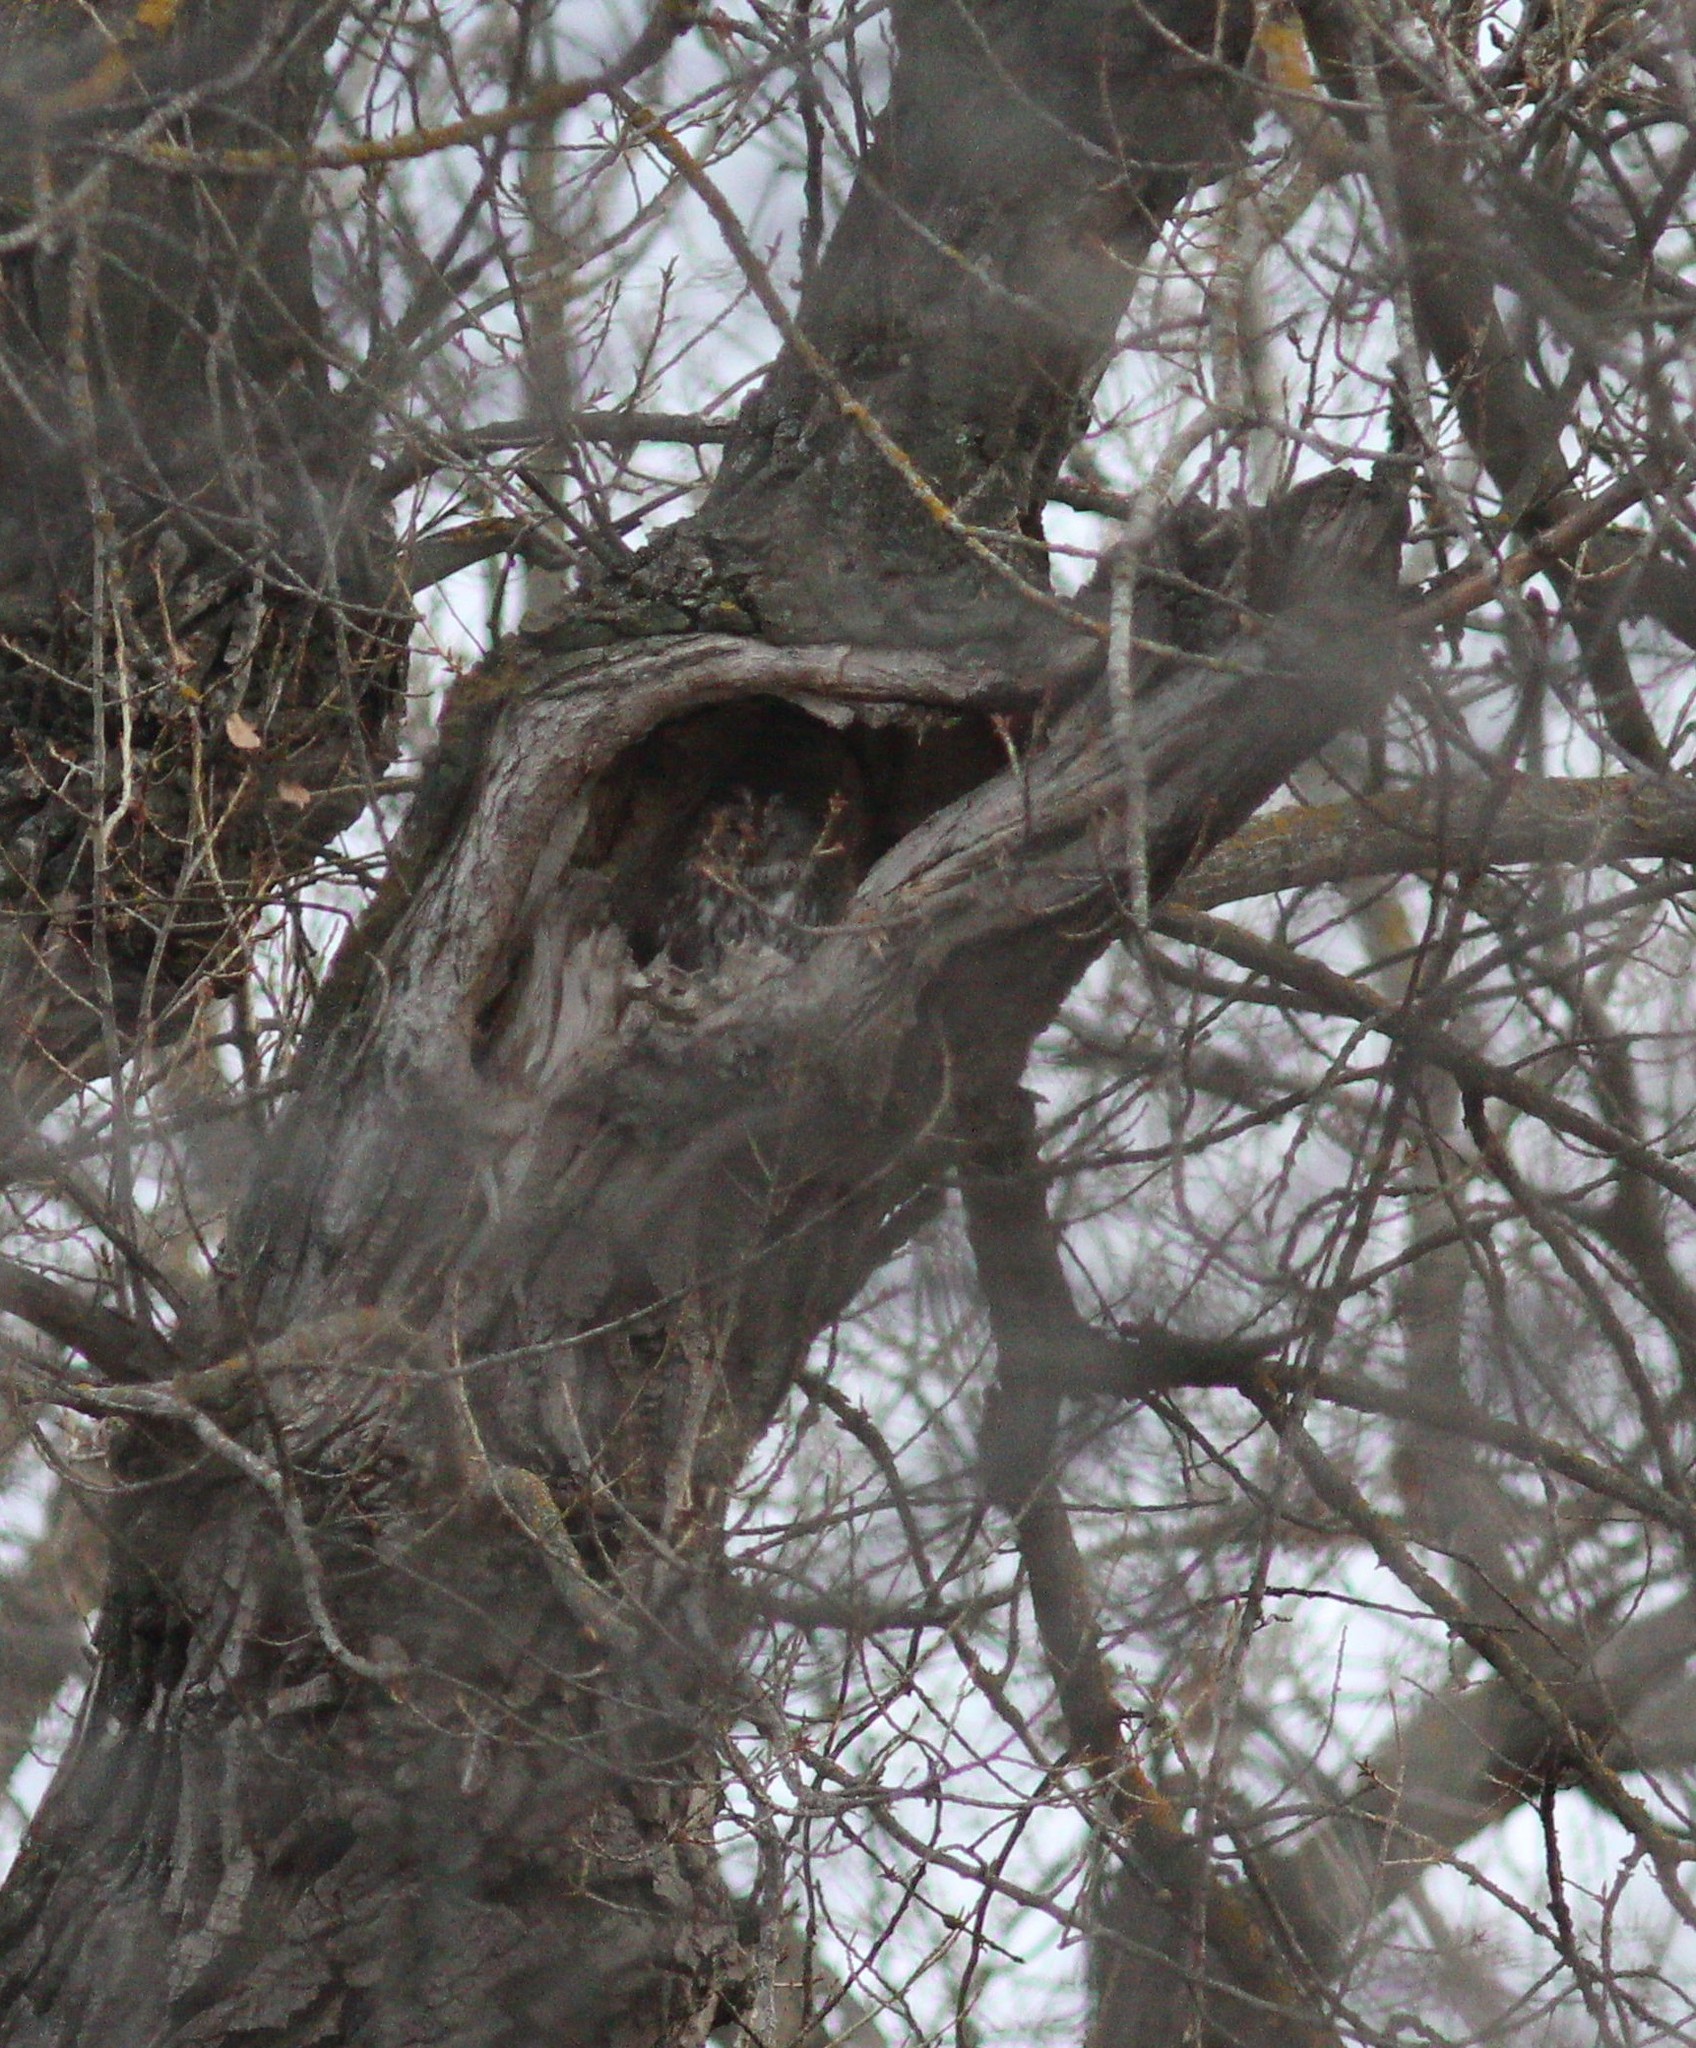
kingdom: Animalia
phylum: Chordata
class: Aves
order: Strigiformes
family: Strigidae
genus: Strix
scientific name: Strix aluco
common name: Tawny owl
